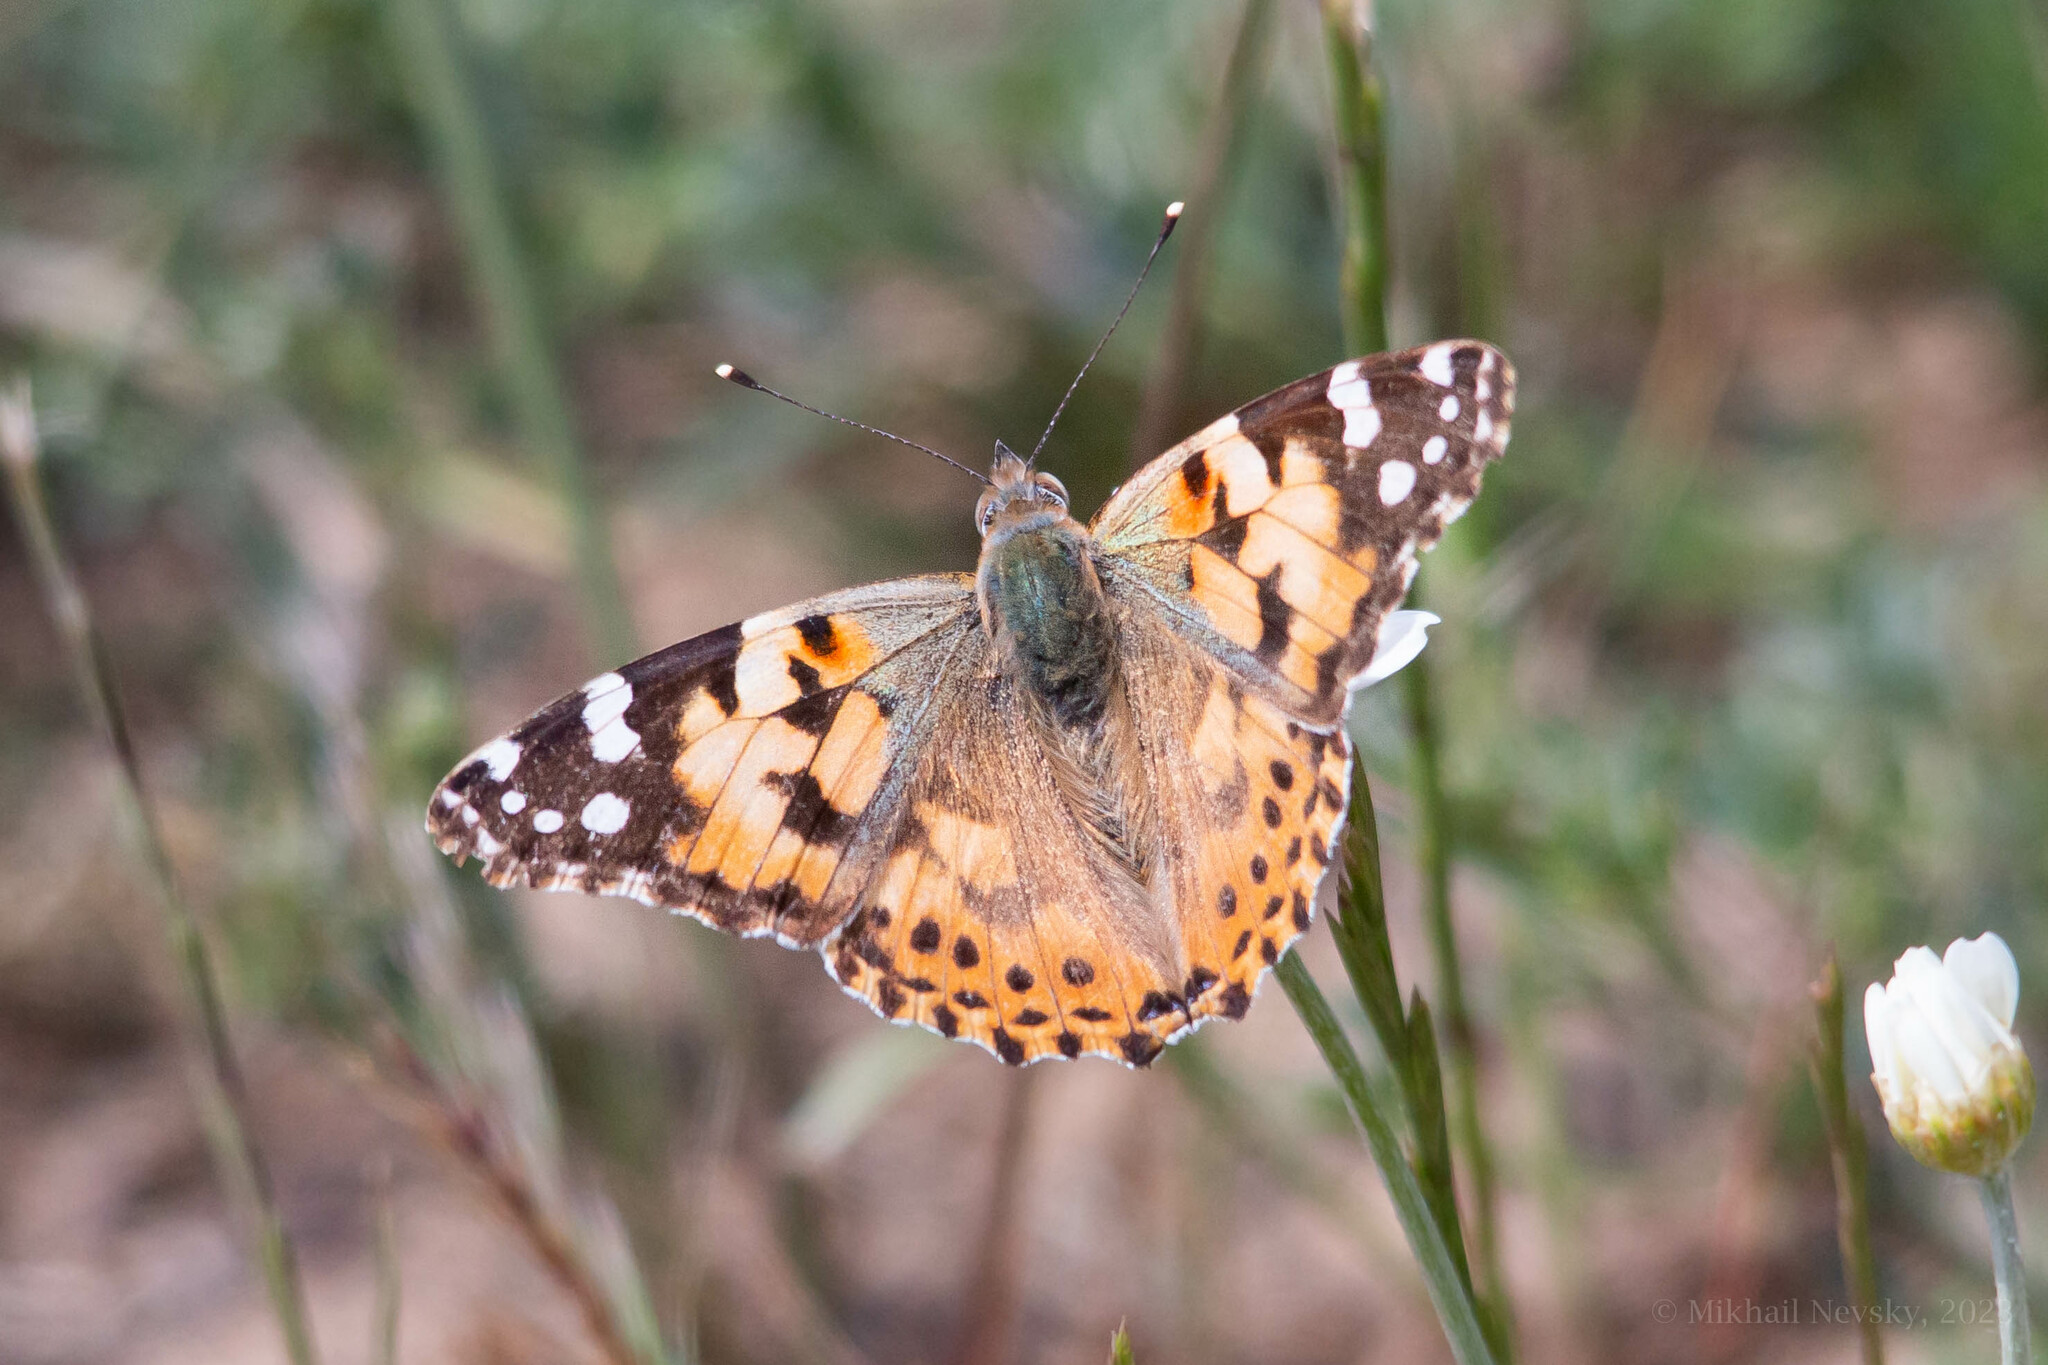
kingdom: Animalia
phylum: Arthropoda
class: Insecta
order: Lepidoptera
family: Nymphalidae
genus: Vanessa
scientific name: Vanessa cardui
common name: Painted lady
